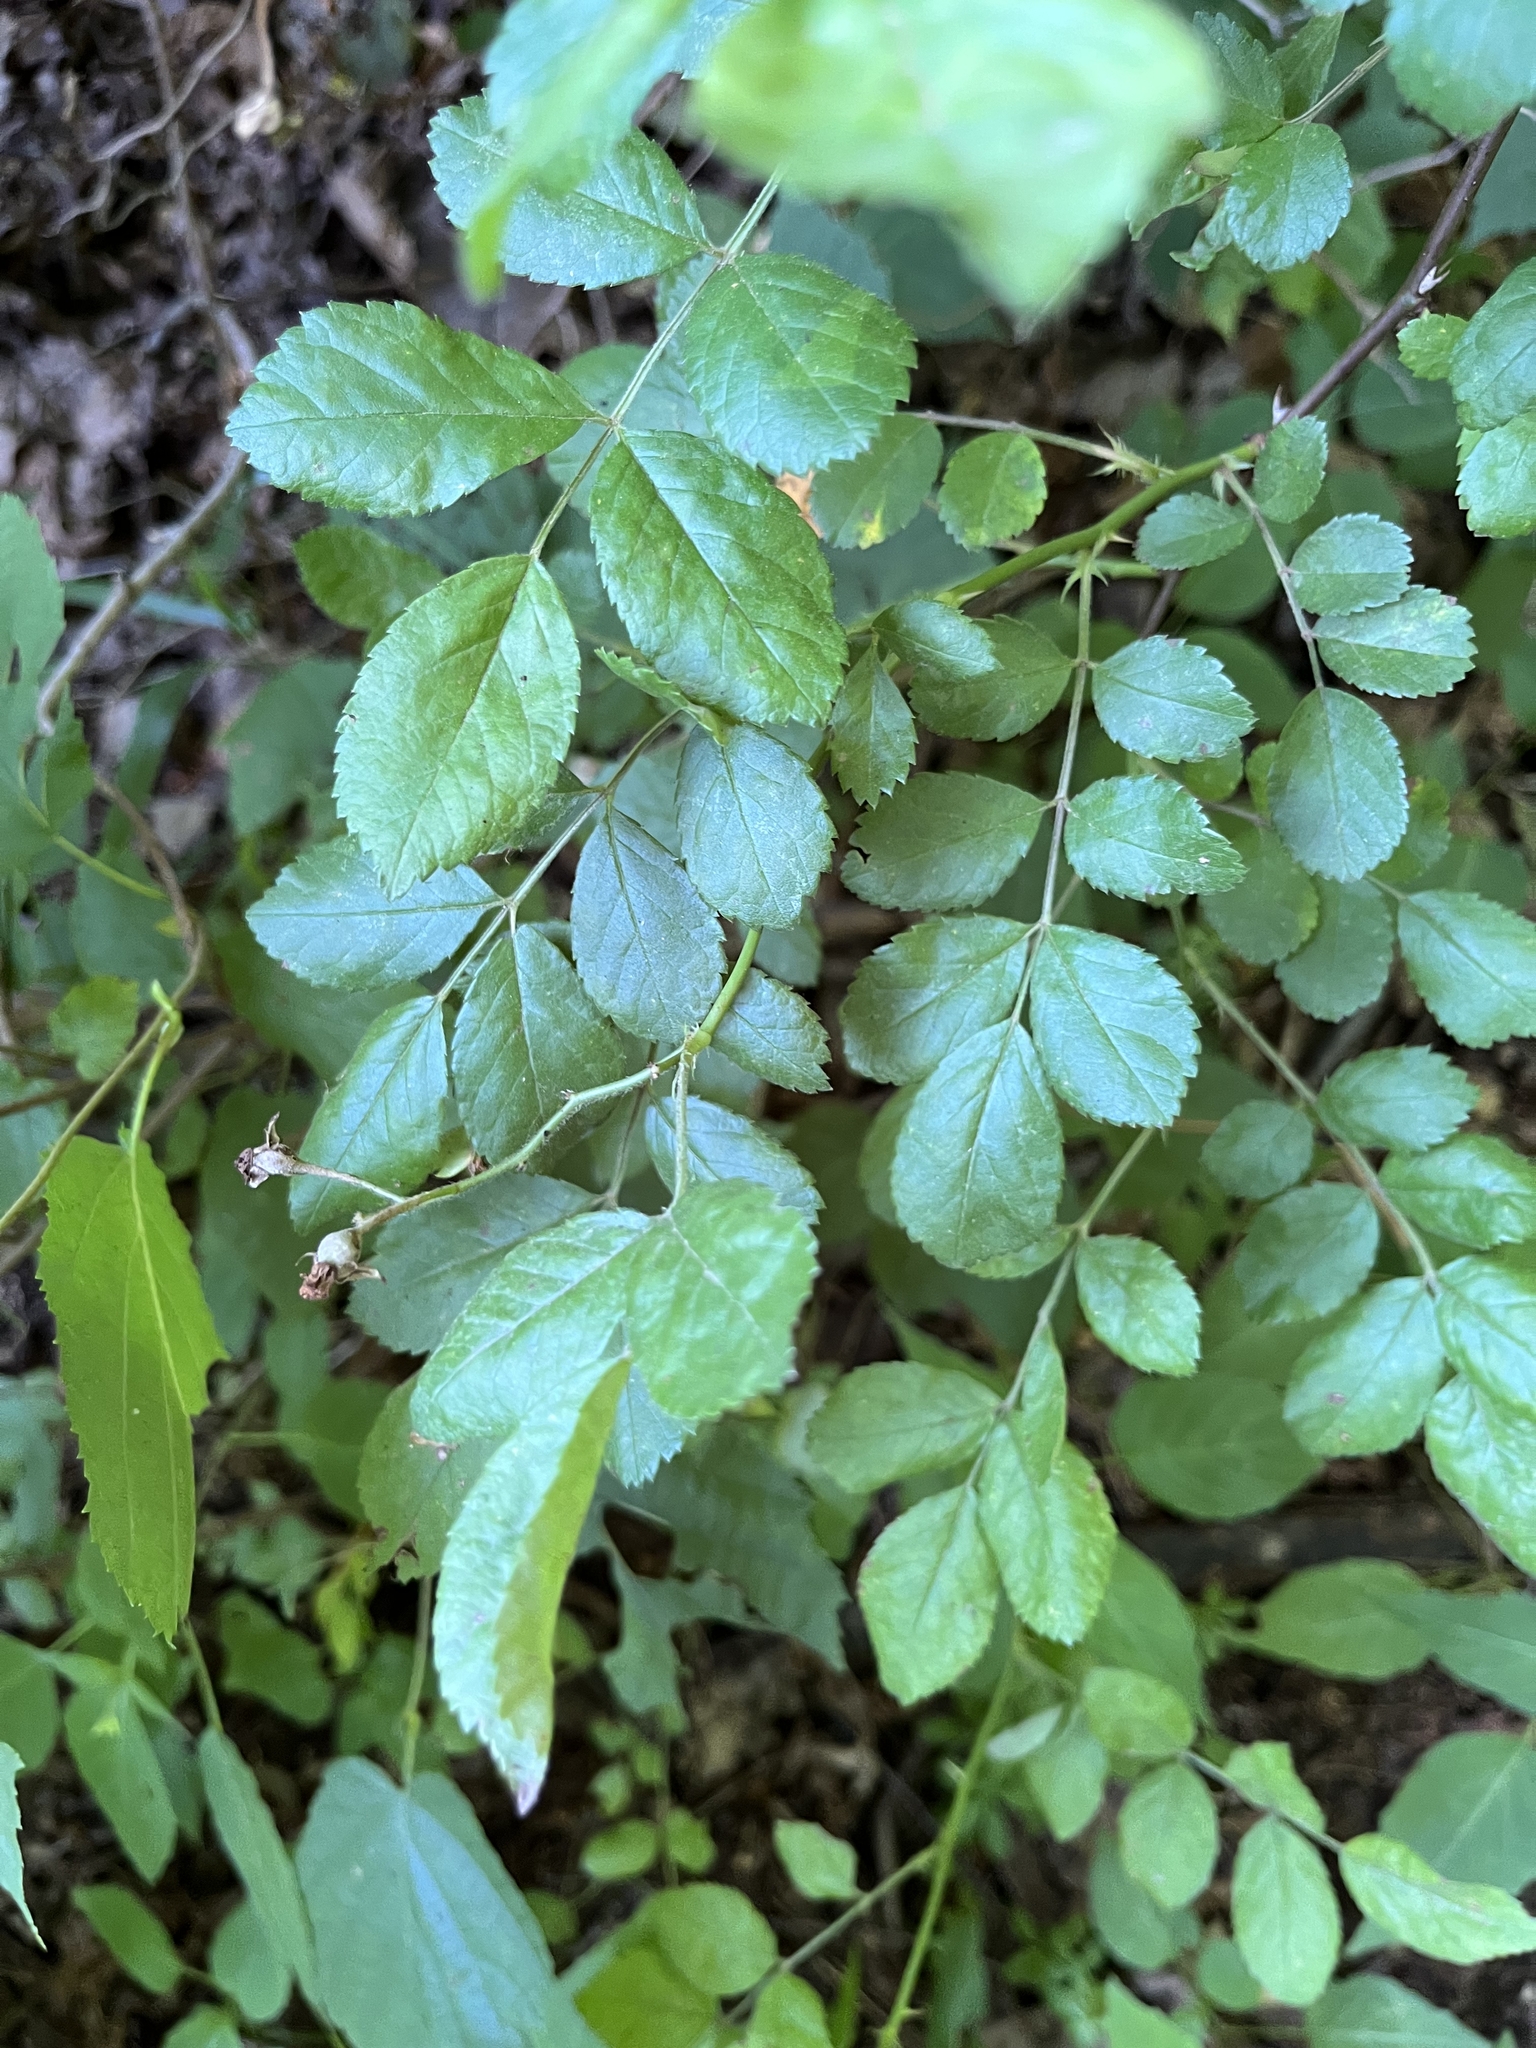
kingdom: Plantae
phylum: Tracheophyta
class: Magnoliopsida
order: Rosales
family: Rosaceae
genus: Rosa
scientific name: Rosa multiflora
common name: Multiflora rose
